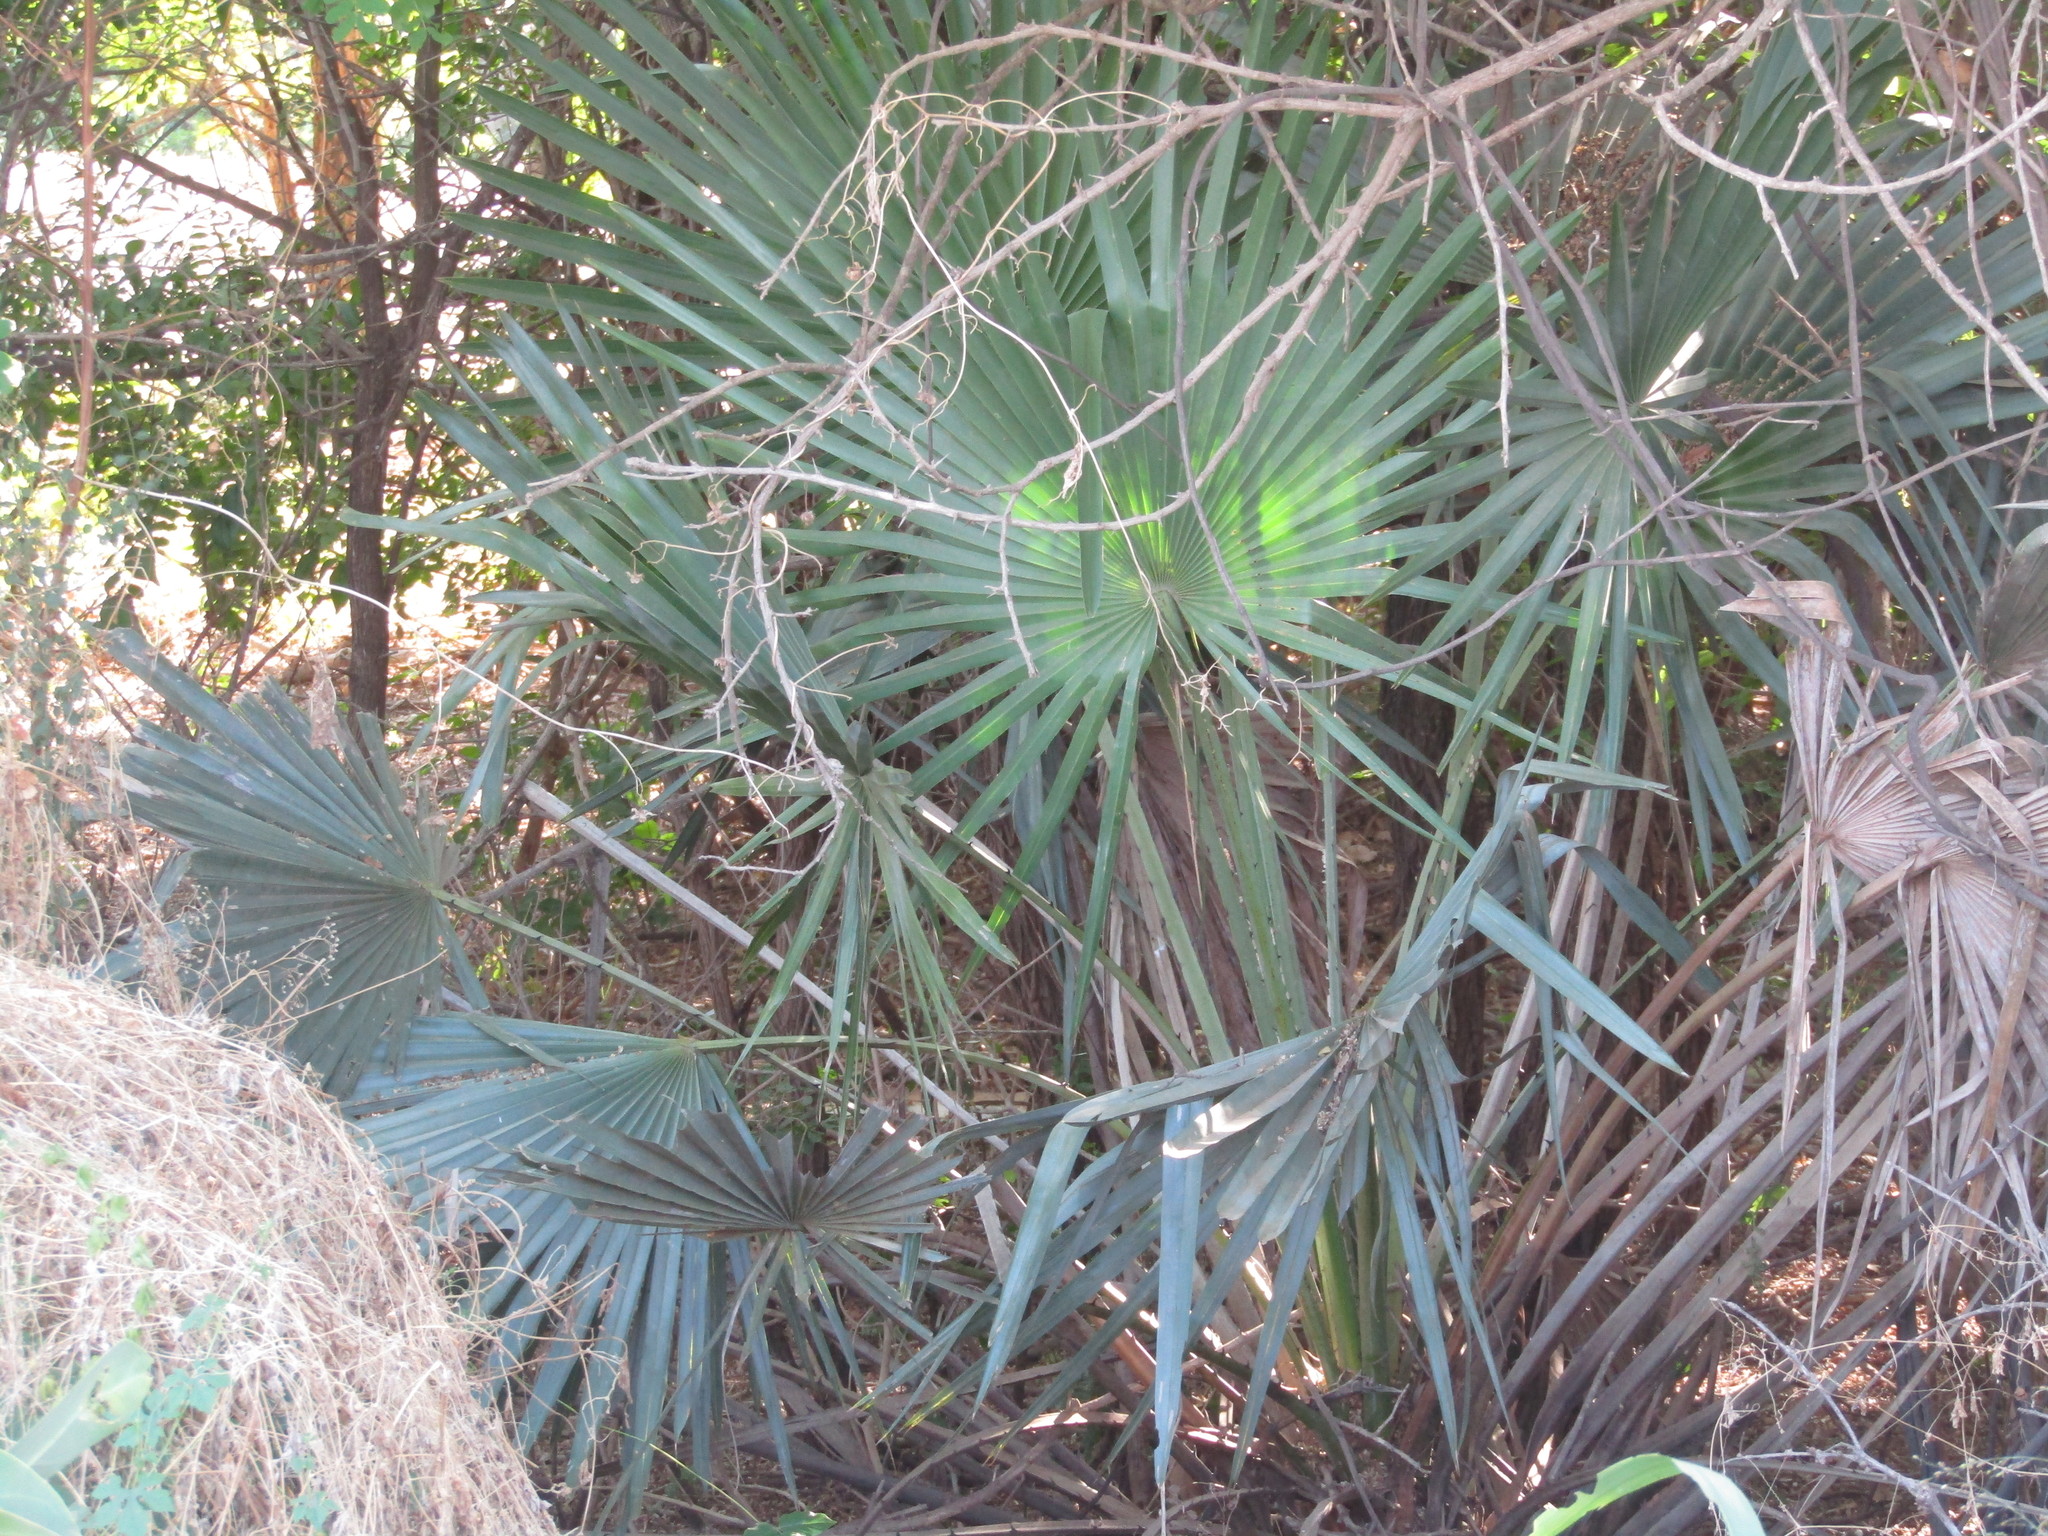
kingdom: Plantae
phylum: Tracheophyta
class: Liliopsida
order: Arecales
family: Arecaceae
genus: Copernicia
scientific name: Copernicia prunifera
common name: Carnauba palm
